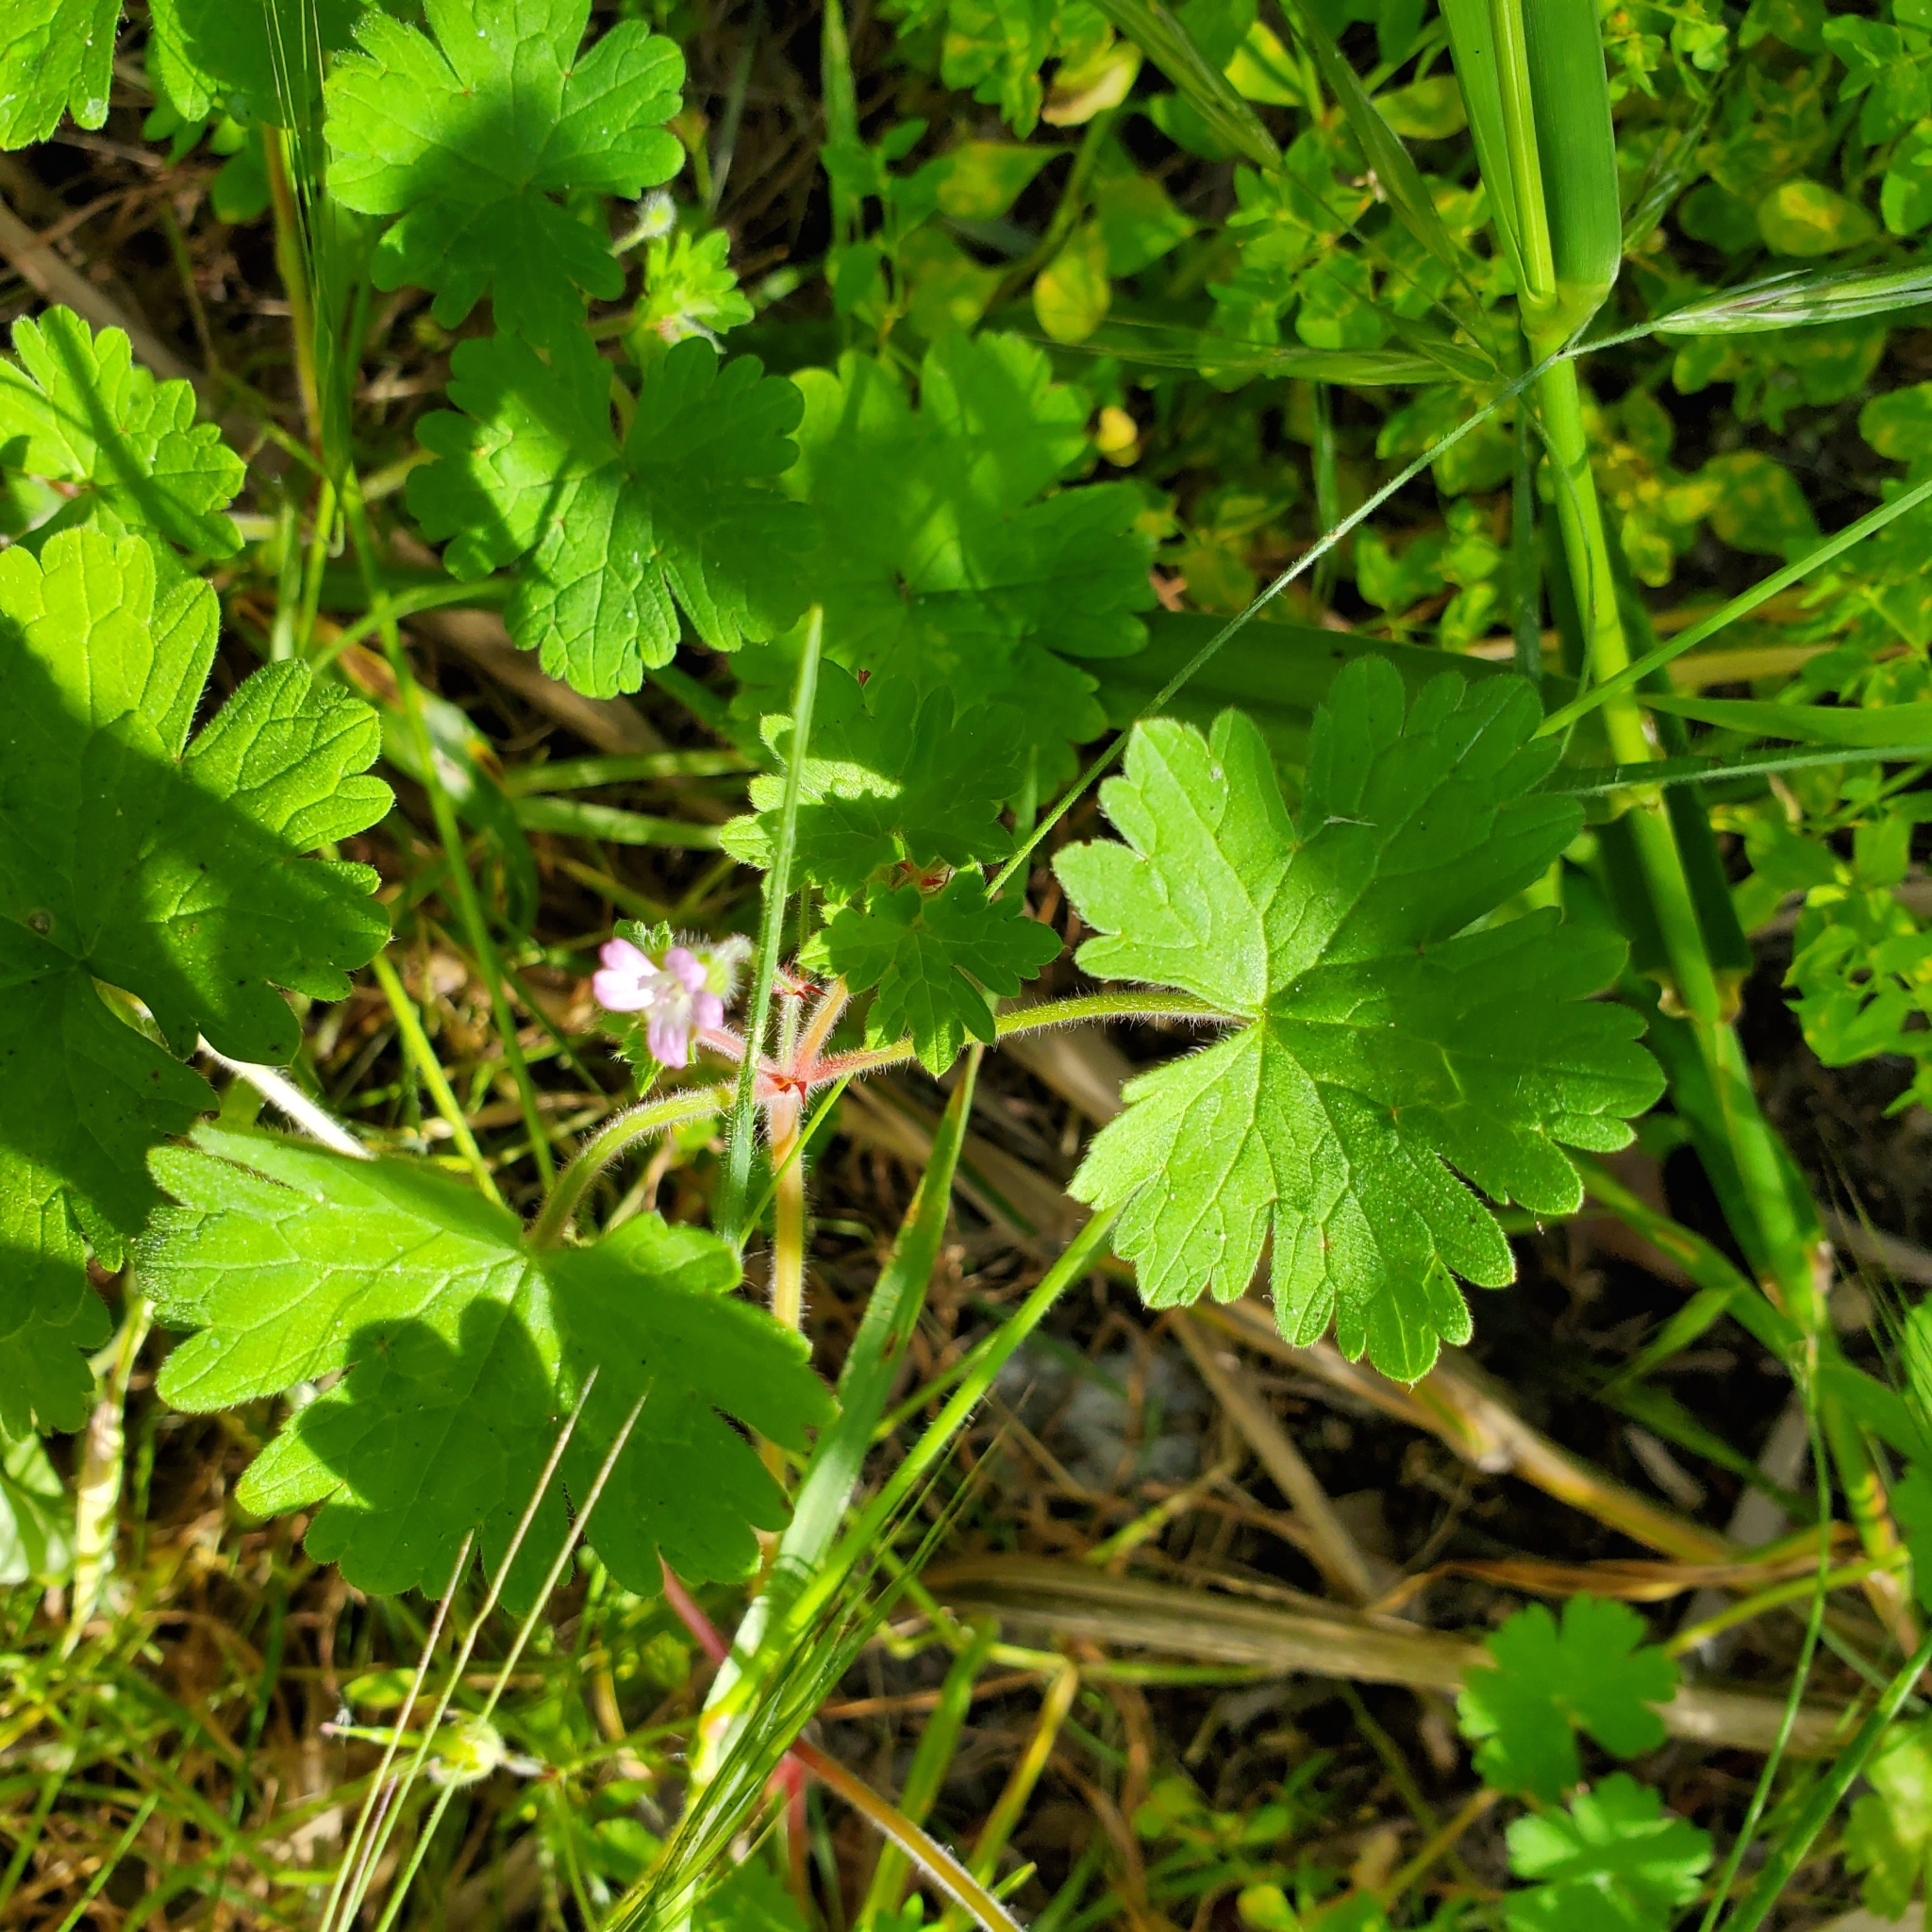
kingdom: Plantae
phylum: Tracheophyta
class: Magnoliopsida
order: Geraniales
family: Geraniaceae
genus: Geranium
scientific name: Geranium rotundifolium
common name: Round-leaved crane's-bill
